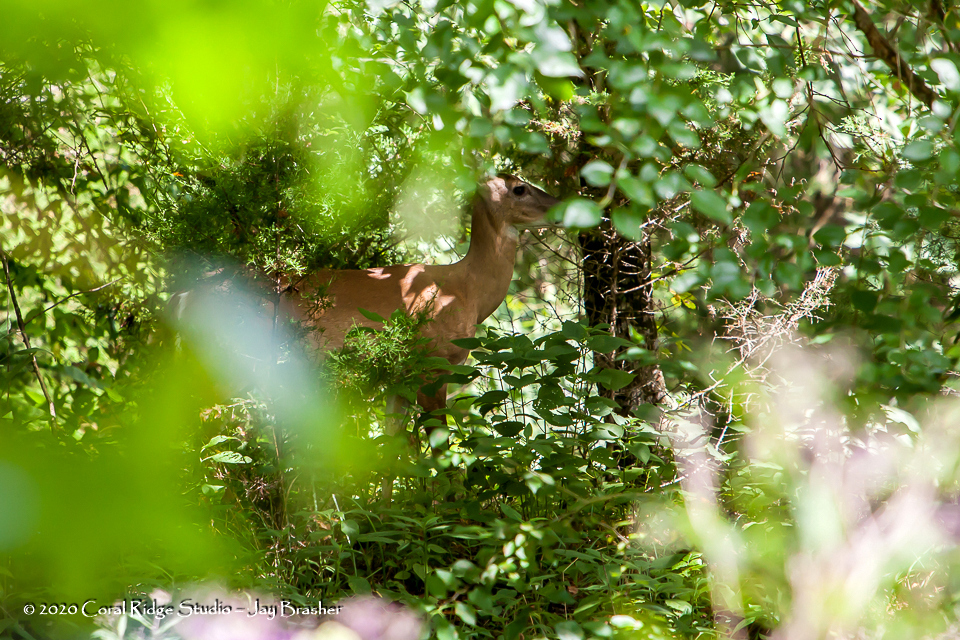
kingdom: Animalia
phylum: Chordata
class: Mammalia
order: Artiodactyla
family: Cervidae
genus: Odocoileus
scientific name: Odocoileus virginianus
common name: White-tailed deer
